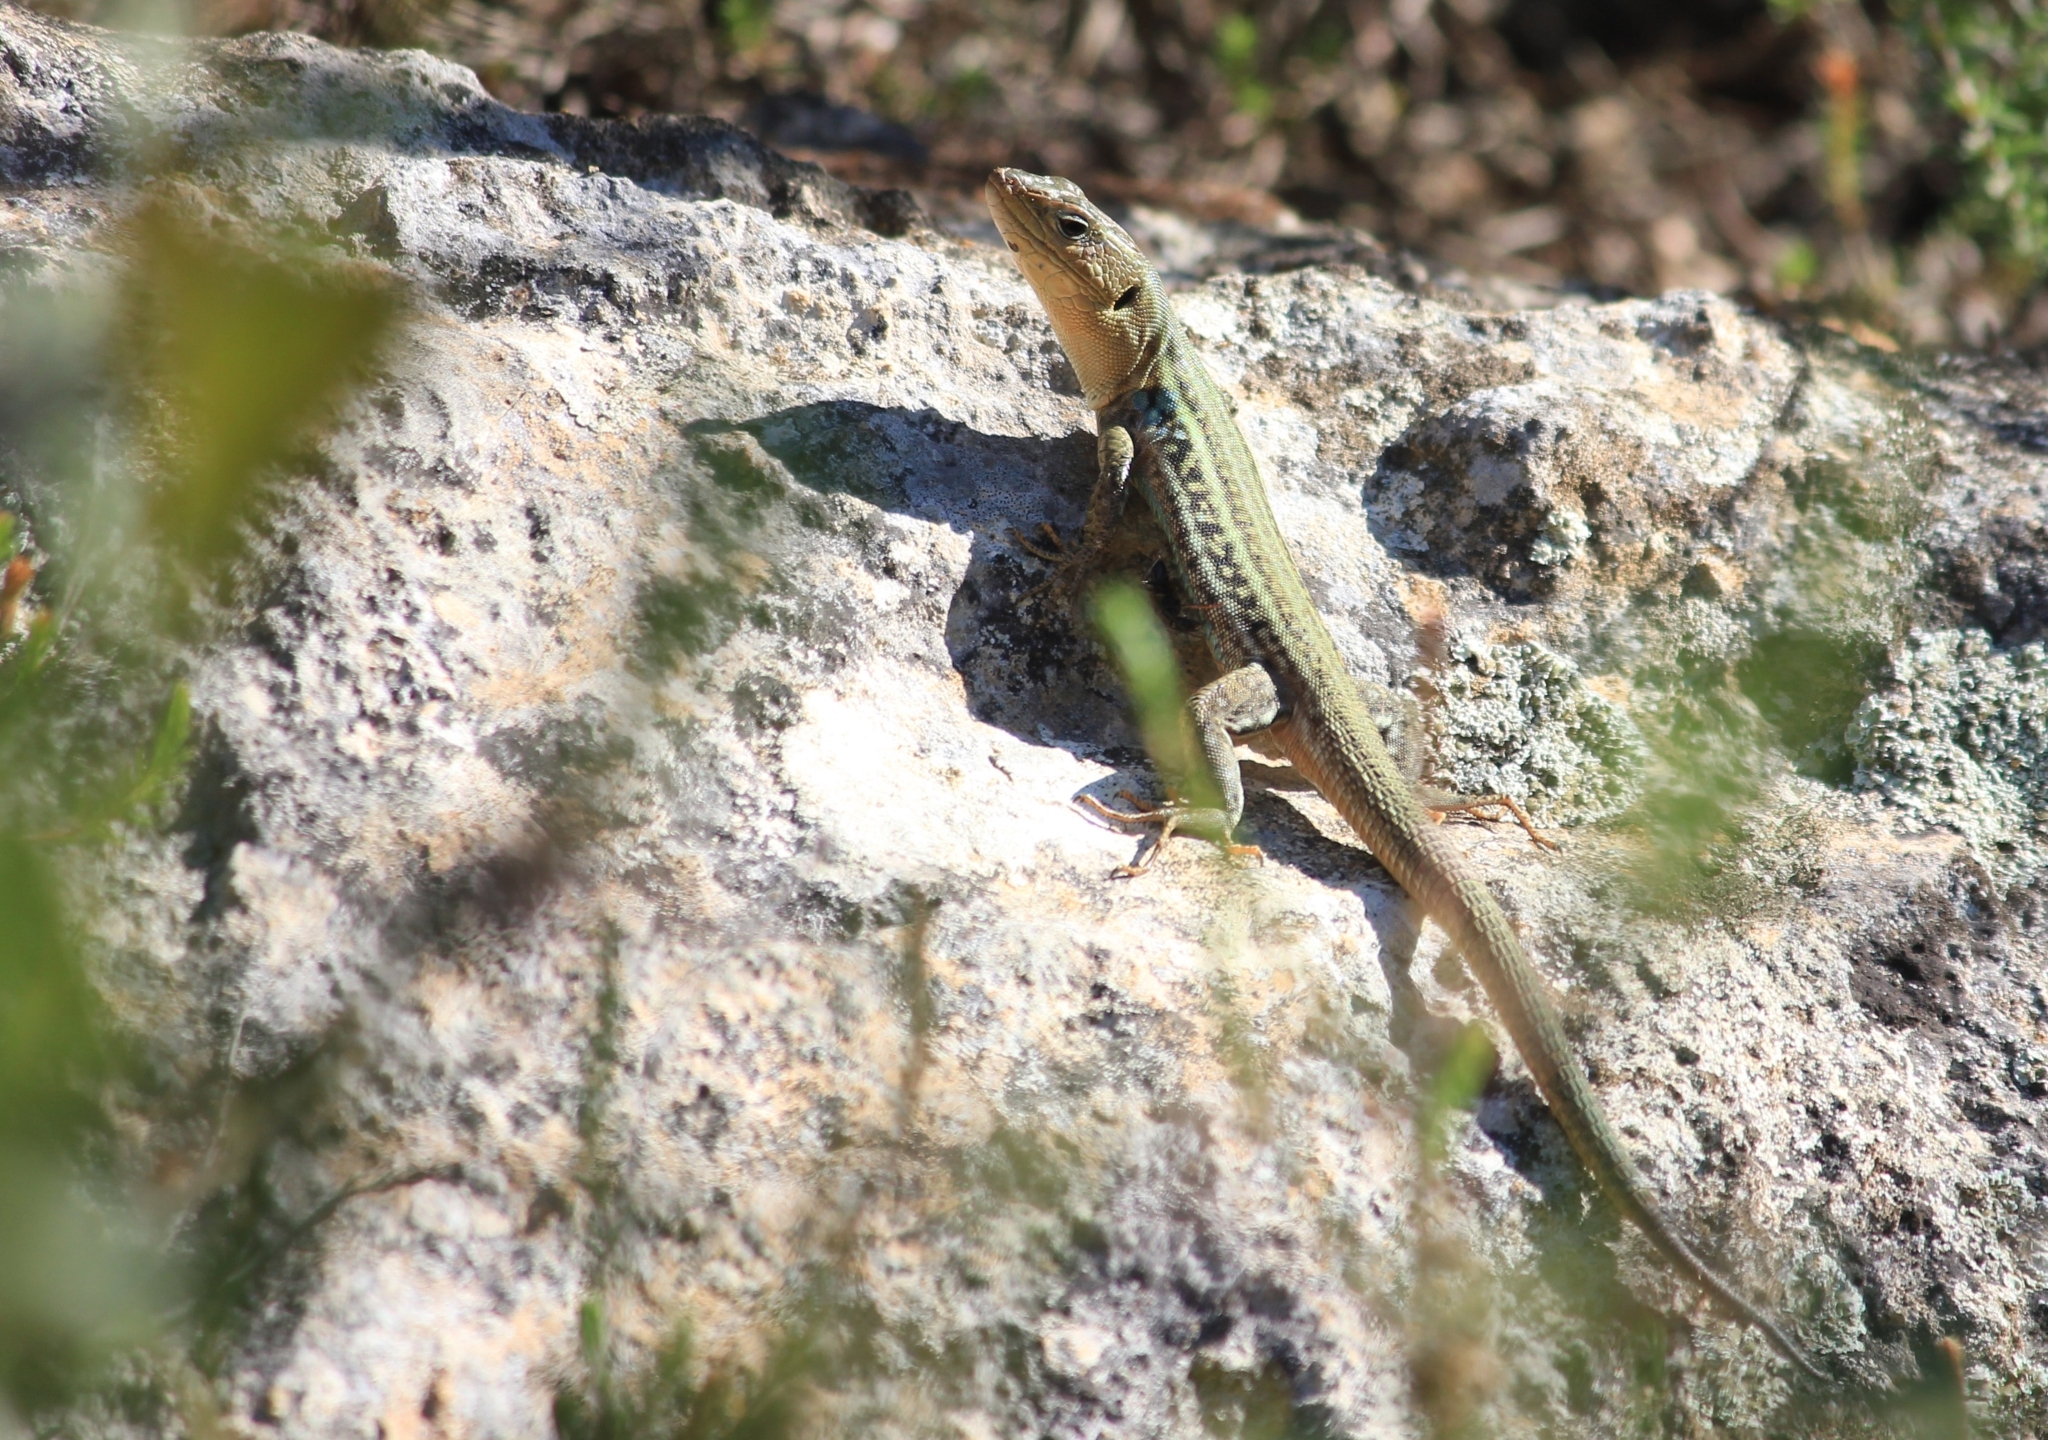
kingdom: Animalia
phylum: Chordata
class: Squamata
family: Lacertidae
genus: Podarcis
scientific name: Podarcis peloponnesiacus
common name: Peloponnese wall lizard
